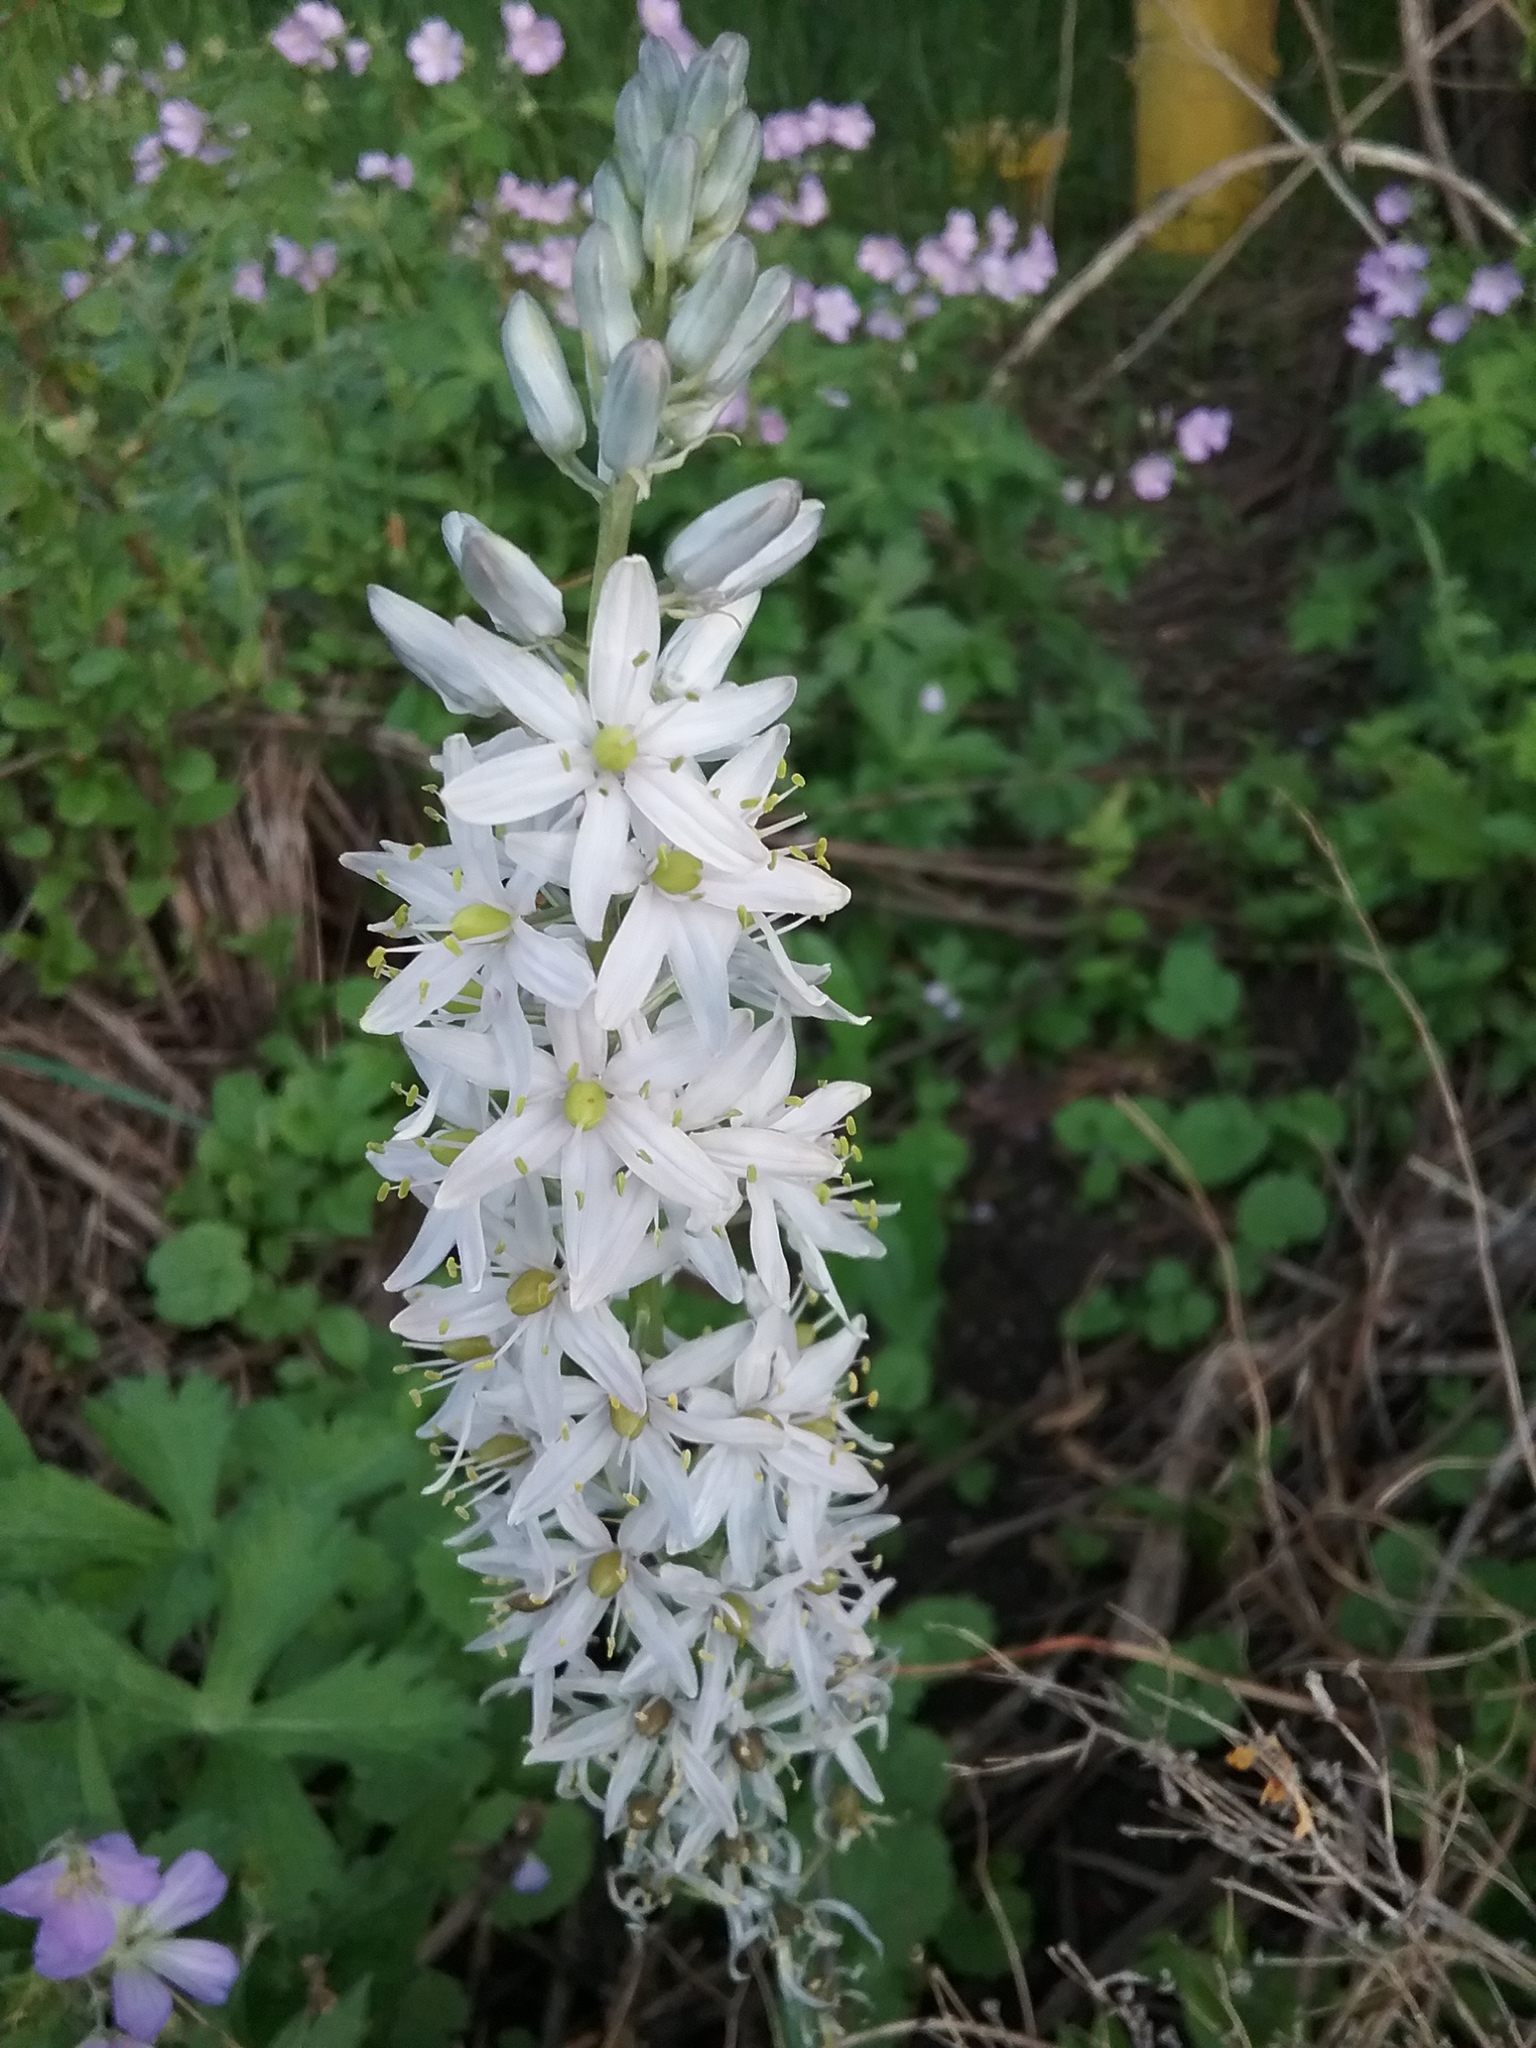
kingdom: Plantae
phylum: Tracheophyta
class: Liliopsida
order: Asparagales
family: Asparagaceae
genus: Camassia
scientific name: Camassia scilloides
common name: Wild hyacinth
